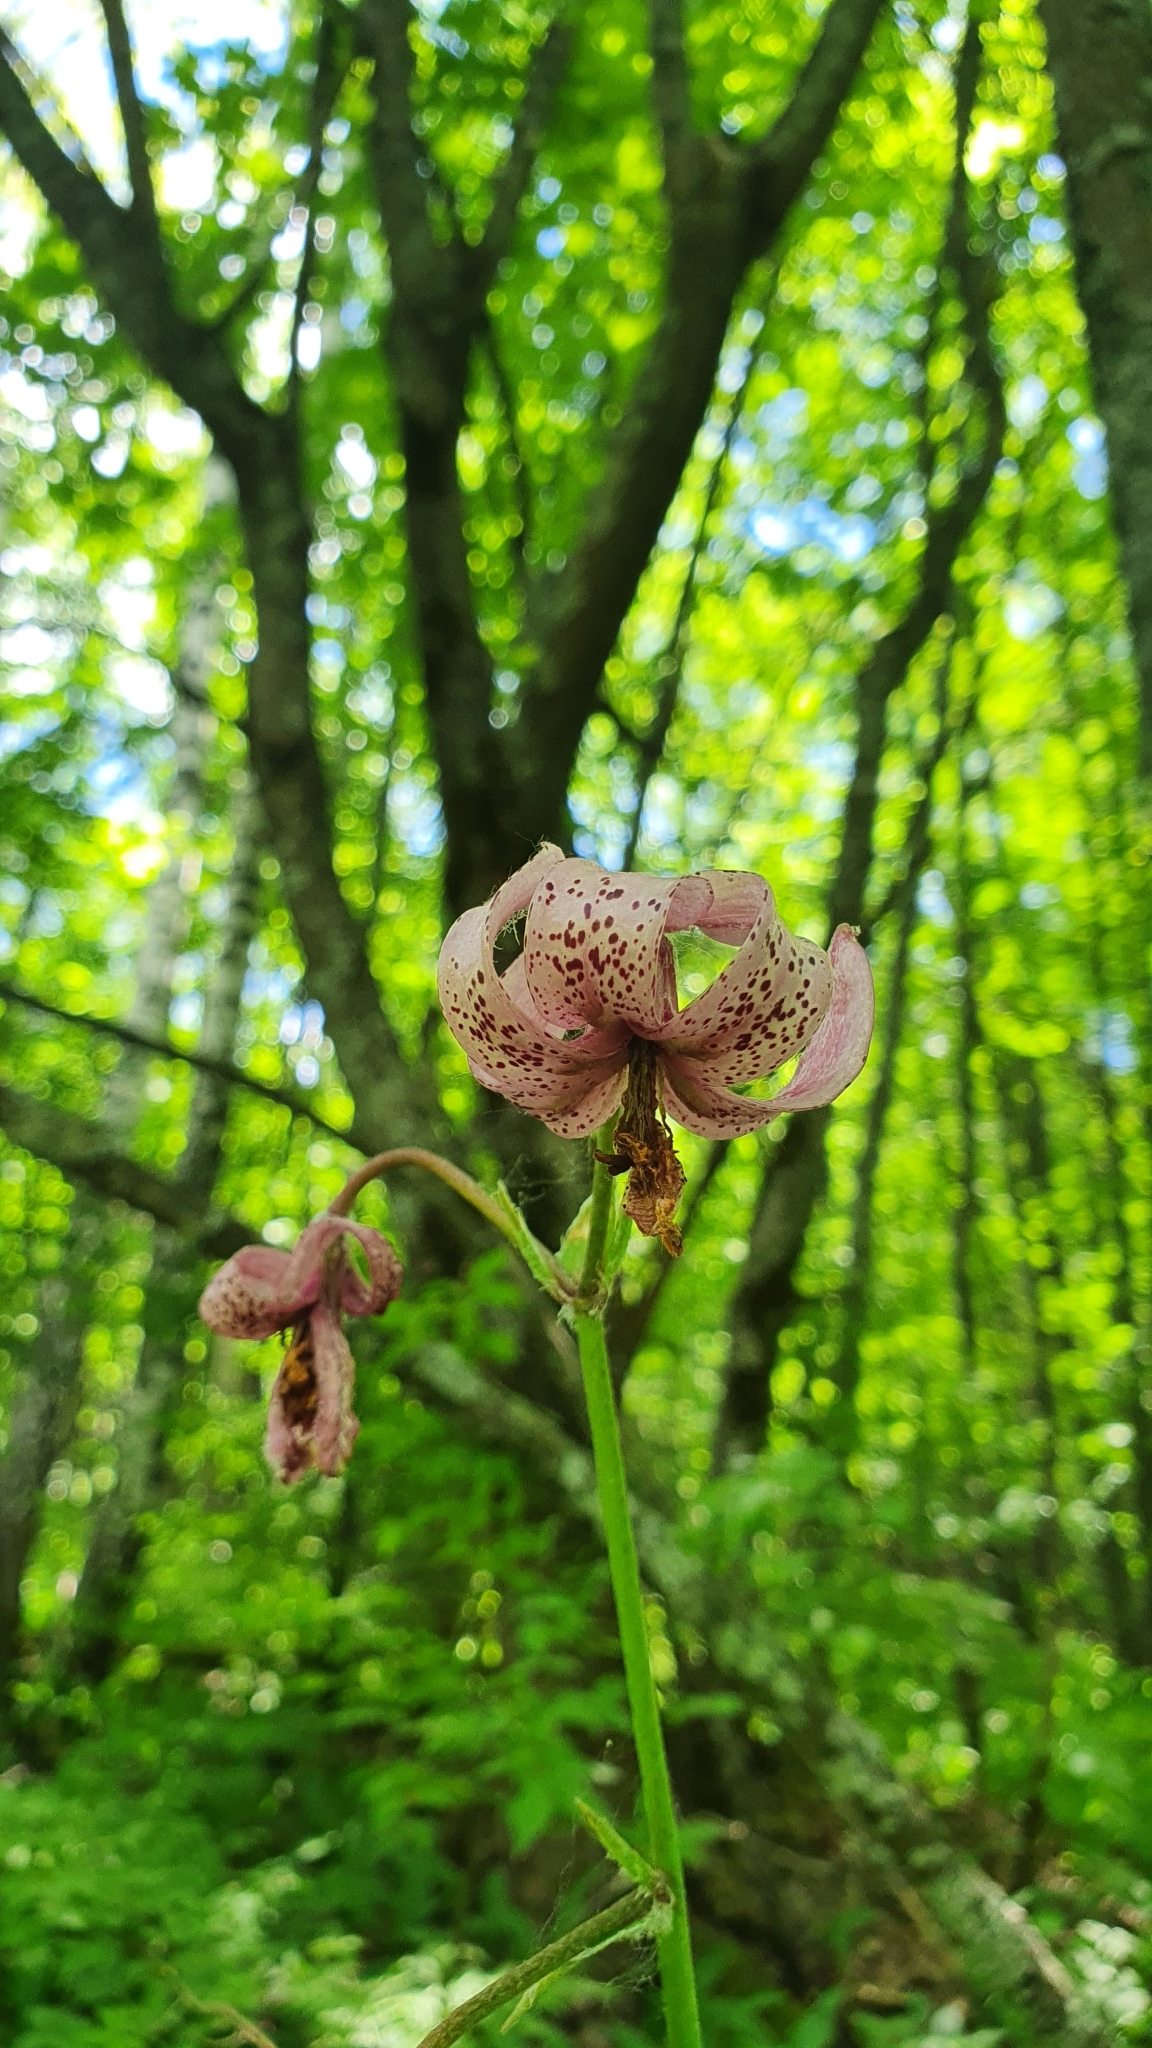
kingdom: Plantae
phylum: Tracheophyta
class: Liliopsida
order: Liliales
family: Liliaceae
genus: Lilium
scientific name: Lilium martagon
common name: Martagon lily
